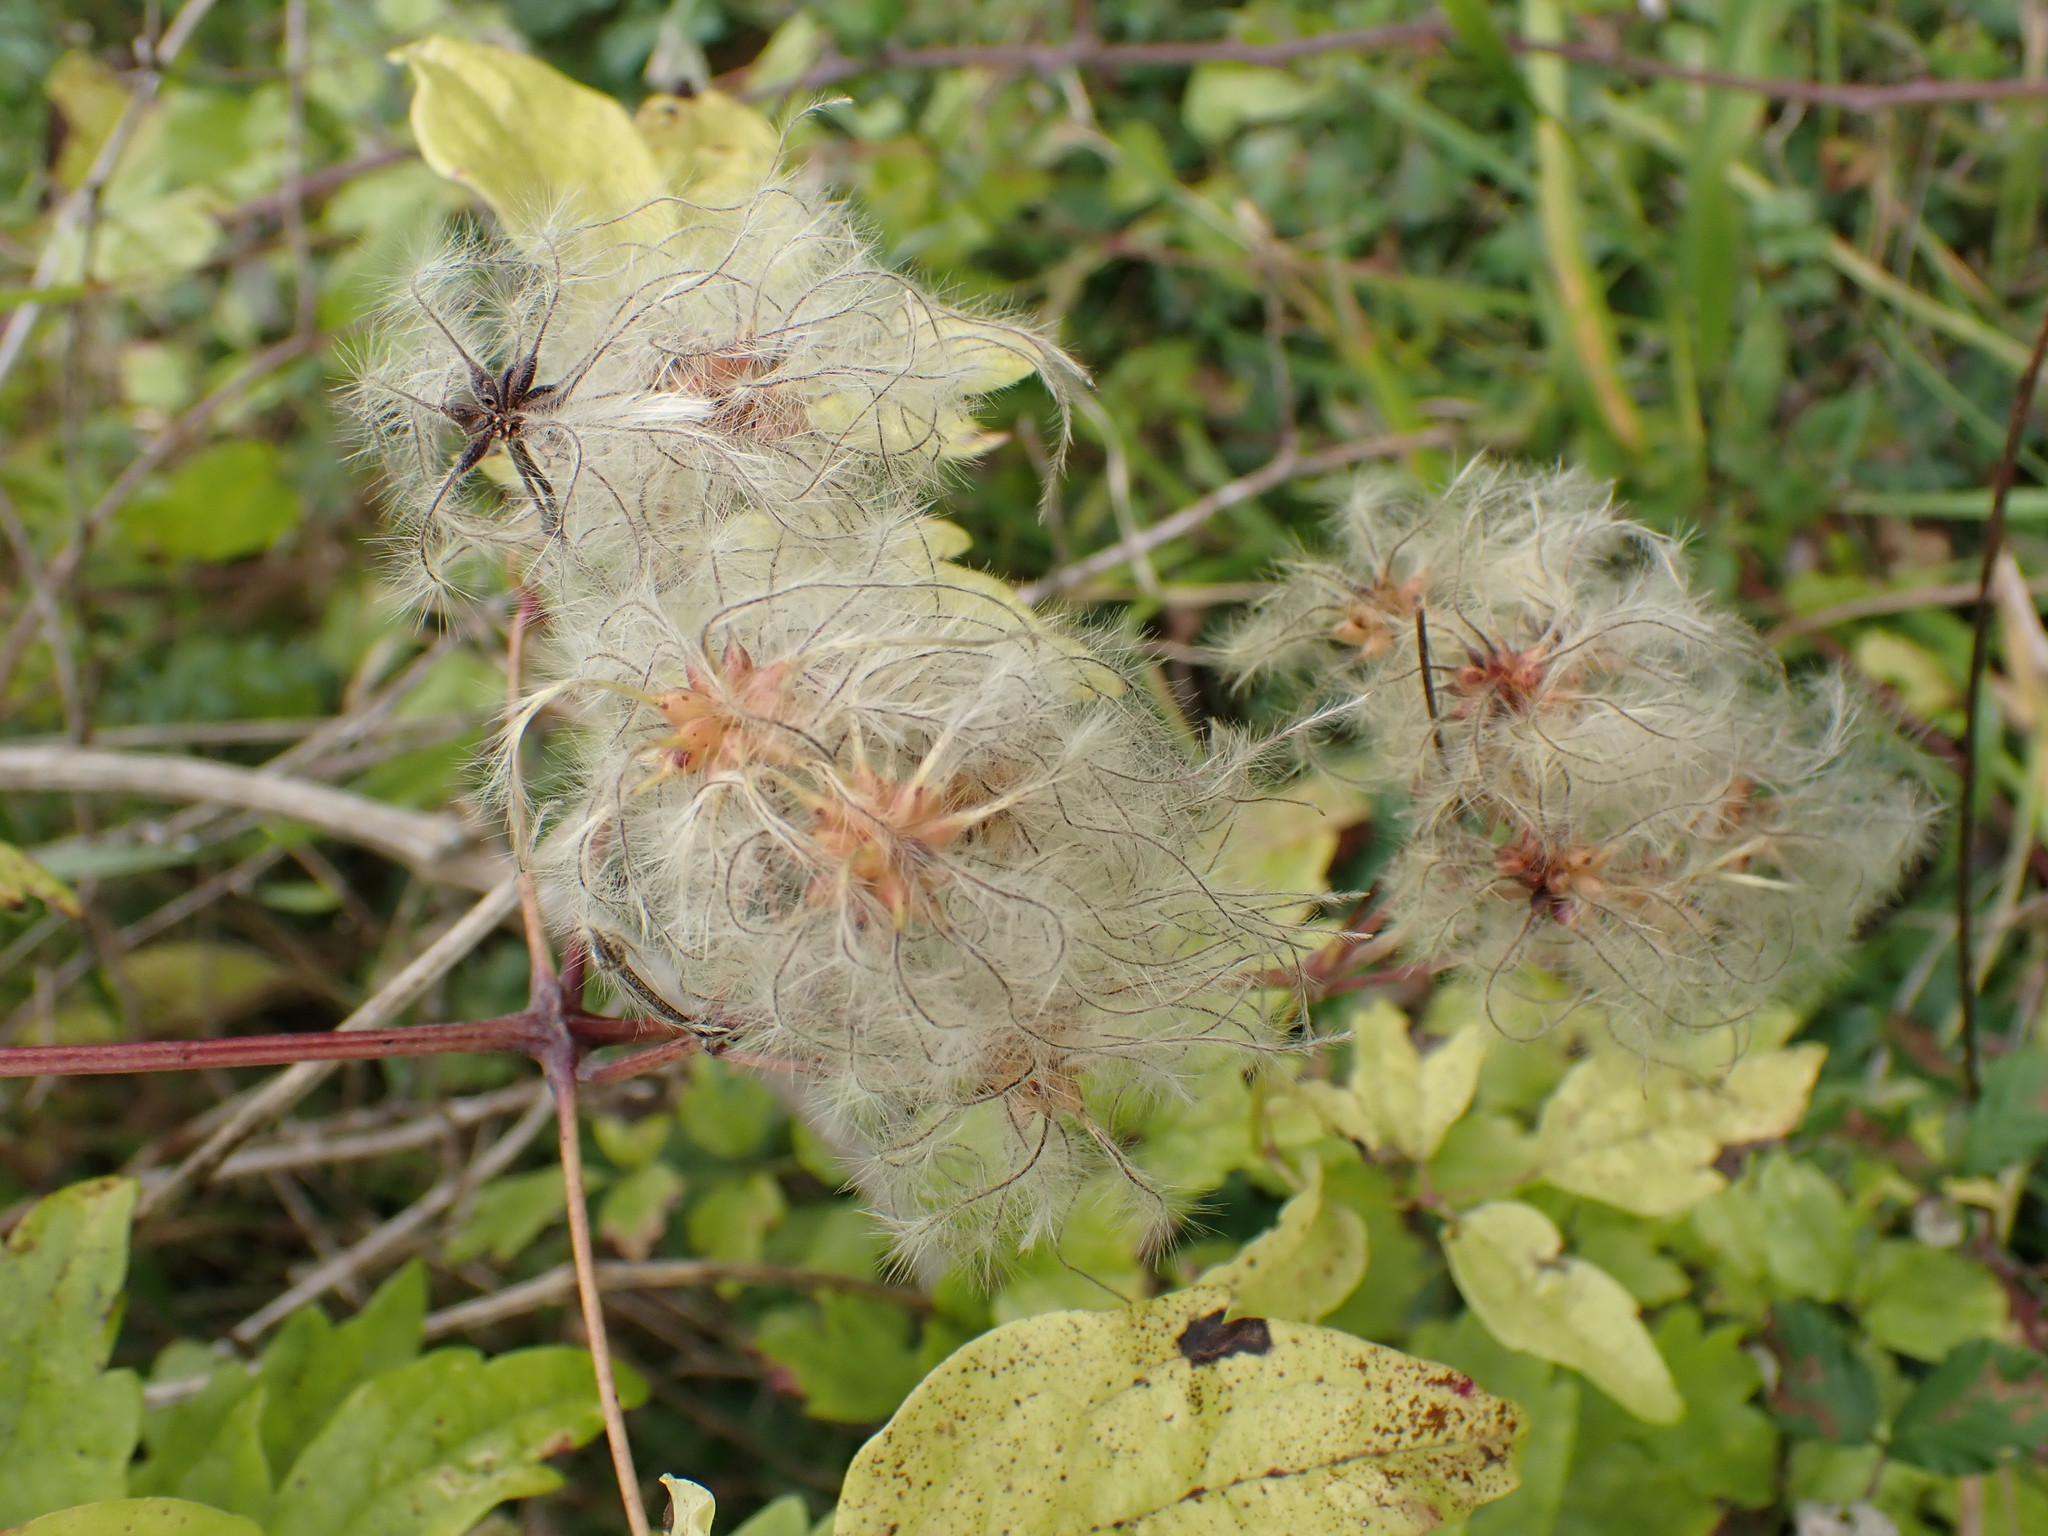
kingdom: Plantae
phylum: Tracheophyta
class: Magnoliopsida
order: Ranunculales
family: Ranunculaceae
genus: Clematis
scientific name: Clematis vitalba
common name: Evergreen clematis
